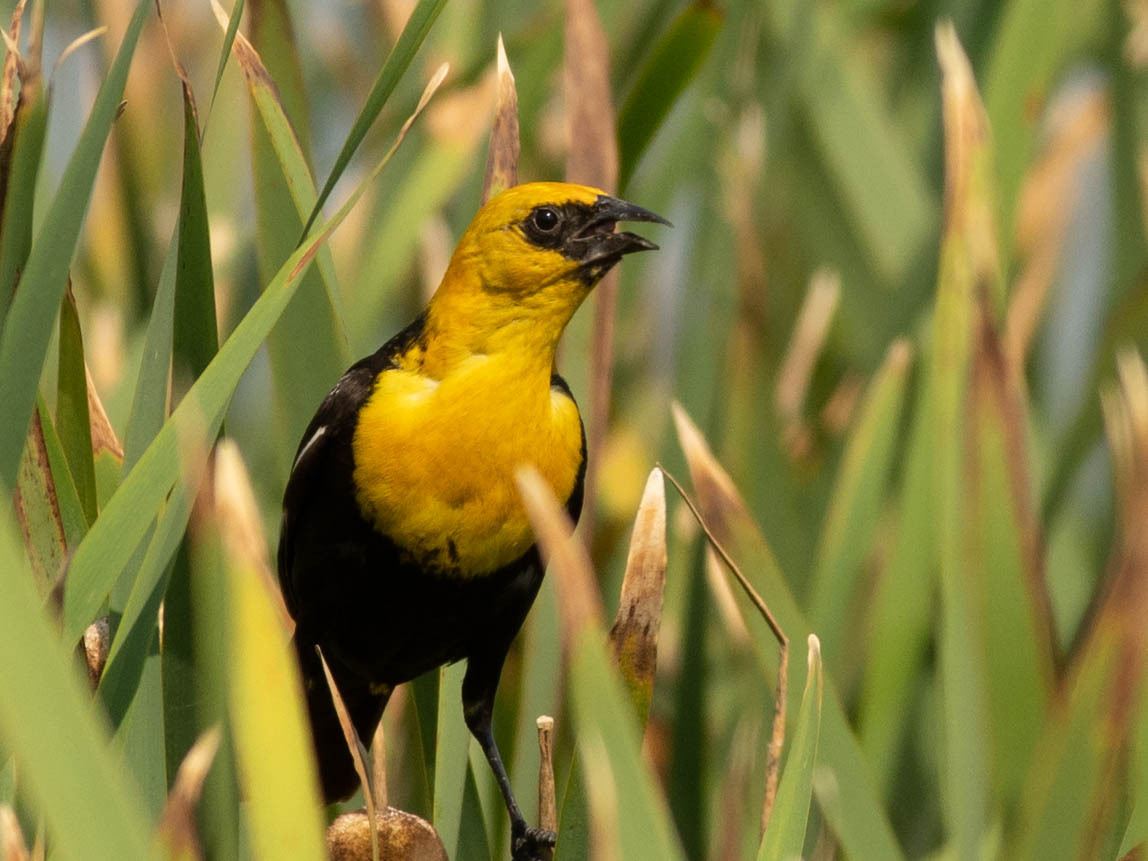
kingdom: Animalia
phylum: Chordata
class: Aves
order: Passeriformes
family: Icteridae
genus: Xanthocephalus
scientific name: Xanthocephalus xanthocephalus
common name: Yellow-headed blackbird
